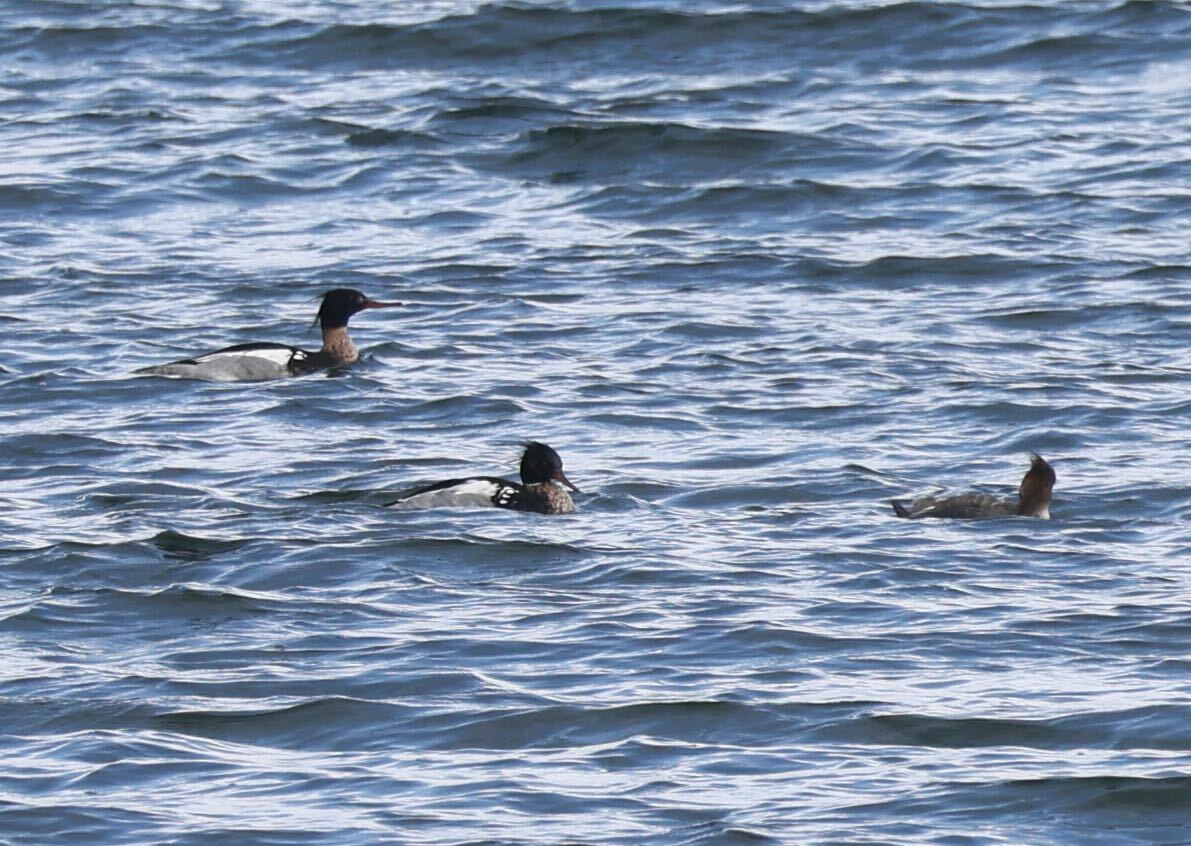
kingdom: Animalia
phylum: Chordata
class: Aves
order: Anseriformes
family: Anatidae
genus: Mergus
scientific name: Mergus serrator
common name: Red-breasted merganser
